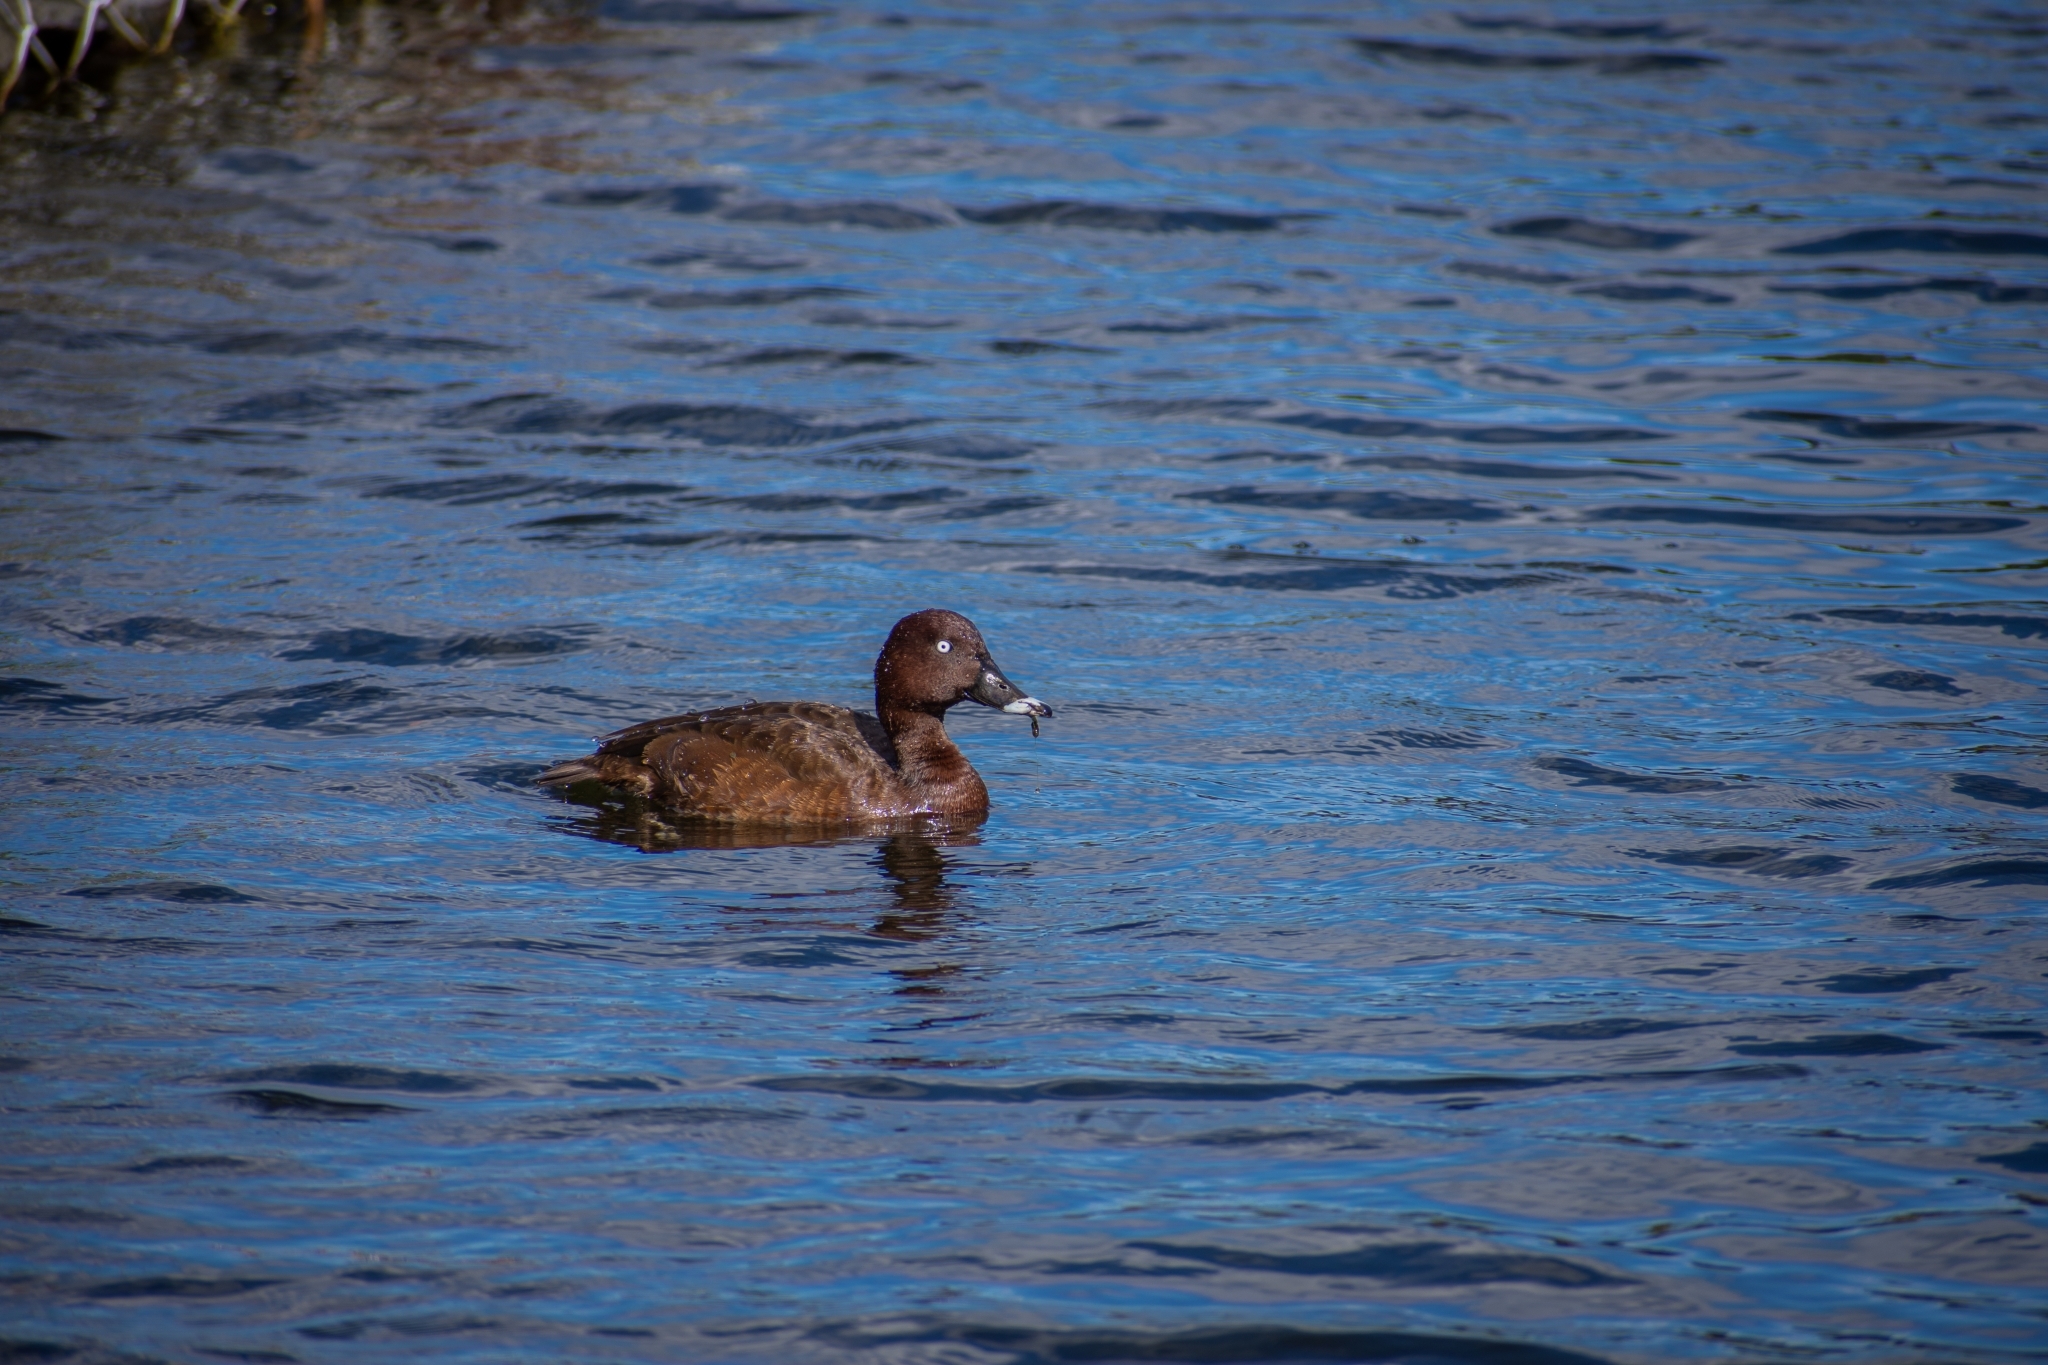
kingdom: Animalia
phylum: Chordata
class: Aves
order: Anseriformes
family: Anatidae
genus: Aythya
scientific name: Aythya australis
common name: Hardhead
